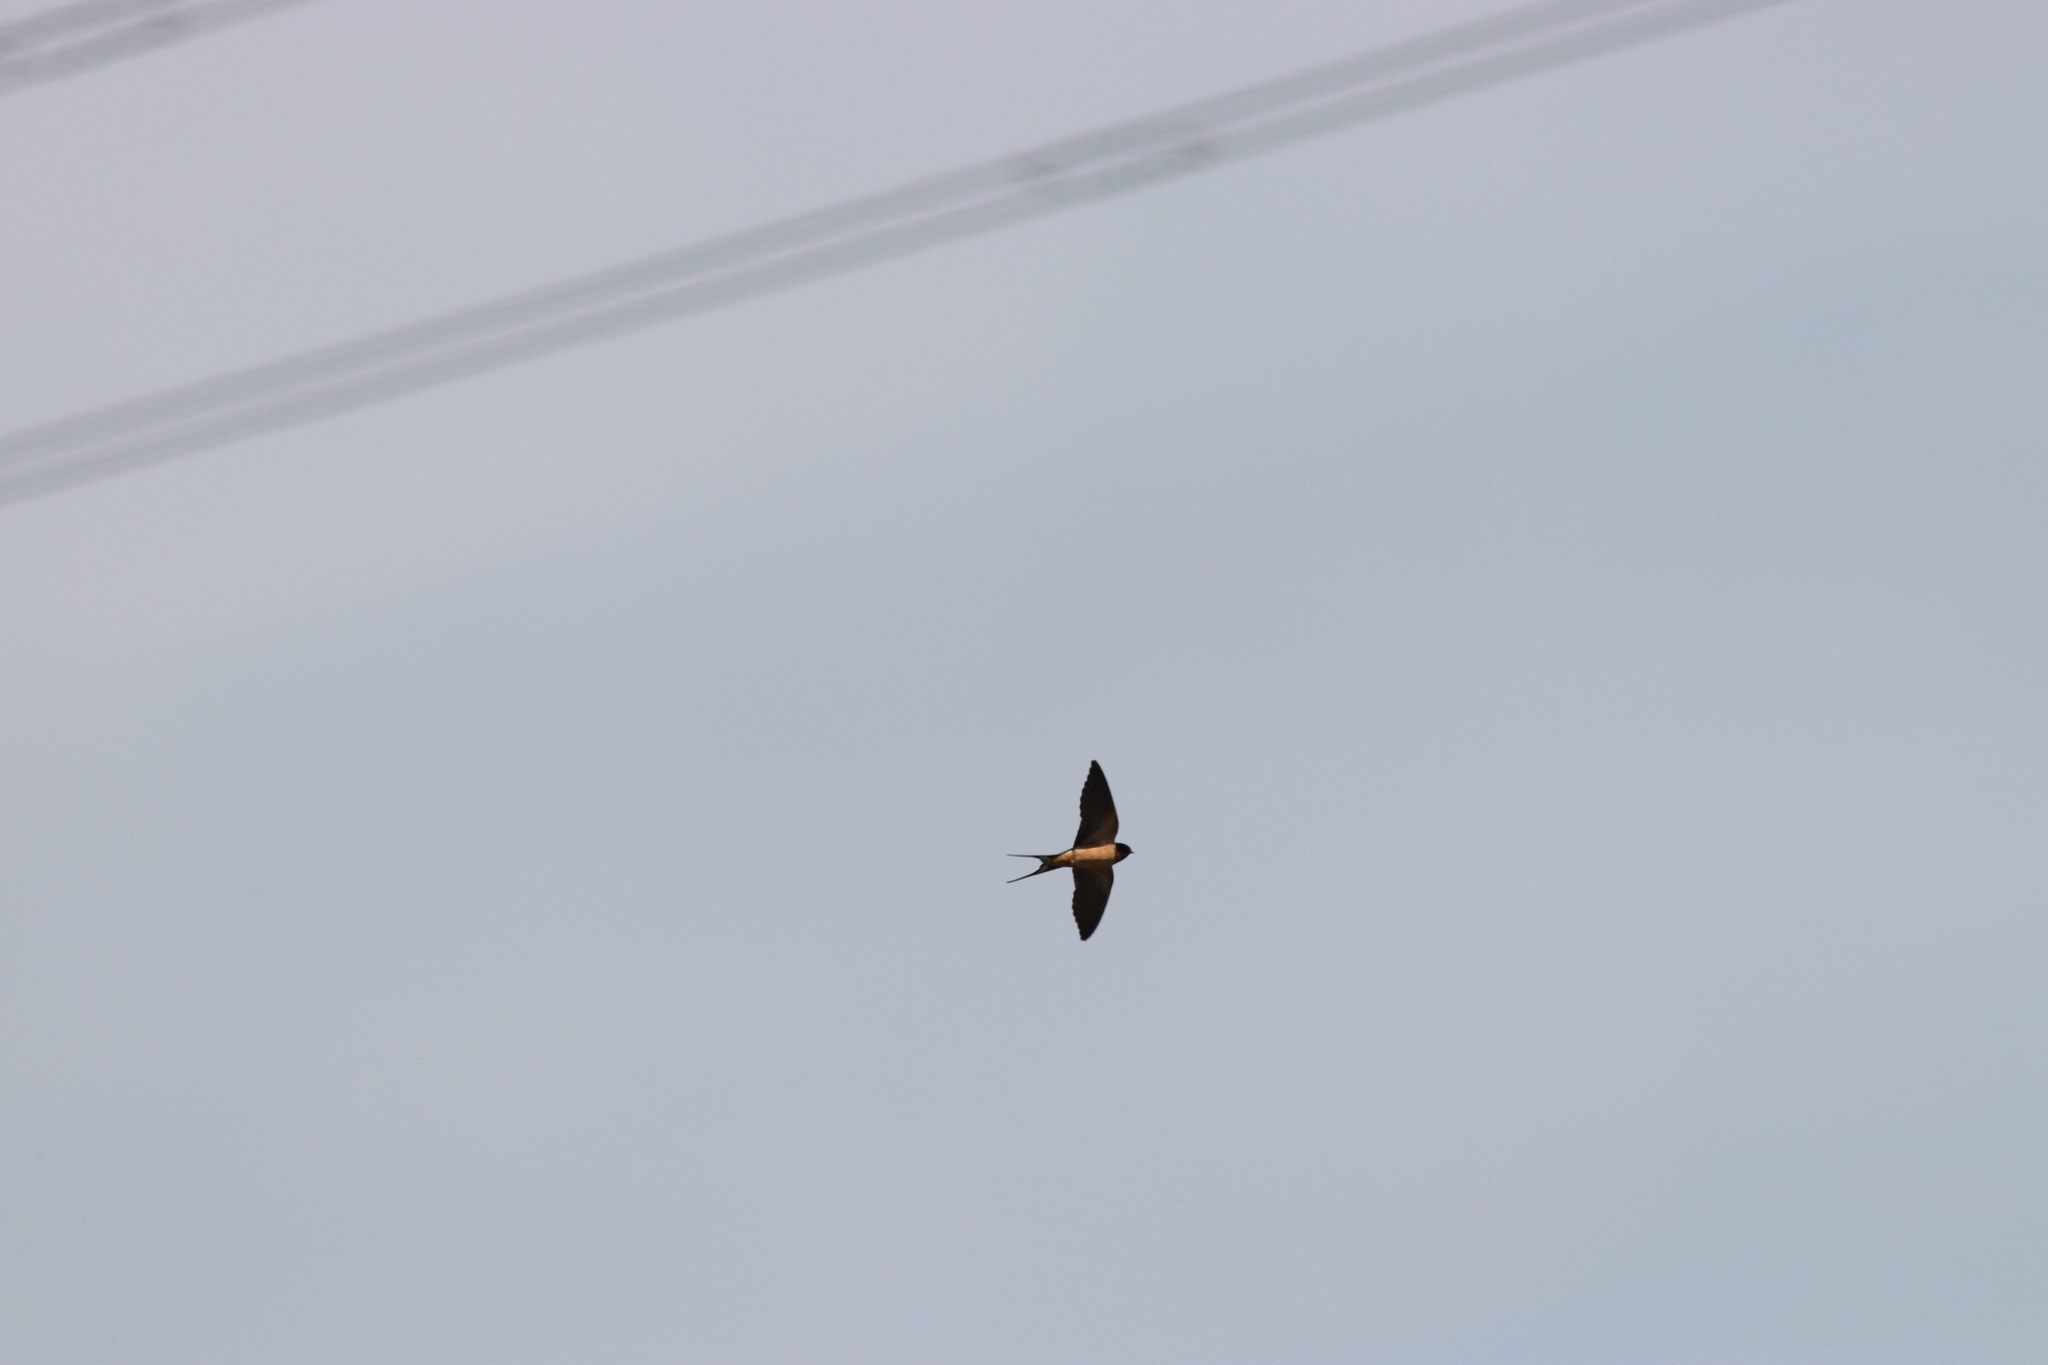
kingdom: Animalia
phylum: Chordata
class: Aves
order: Passeriformes
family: Hirundinidae
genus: Hirundo
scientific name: Hirundo rustica
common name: Barn swallow
